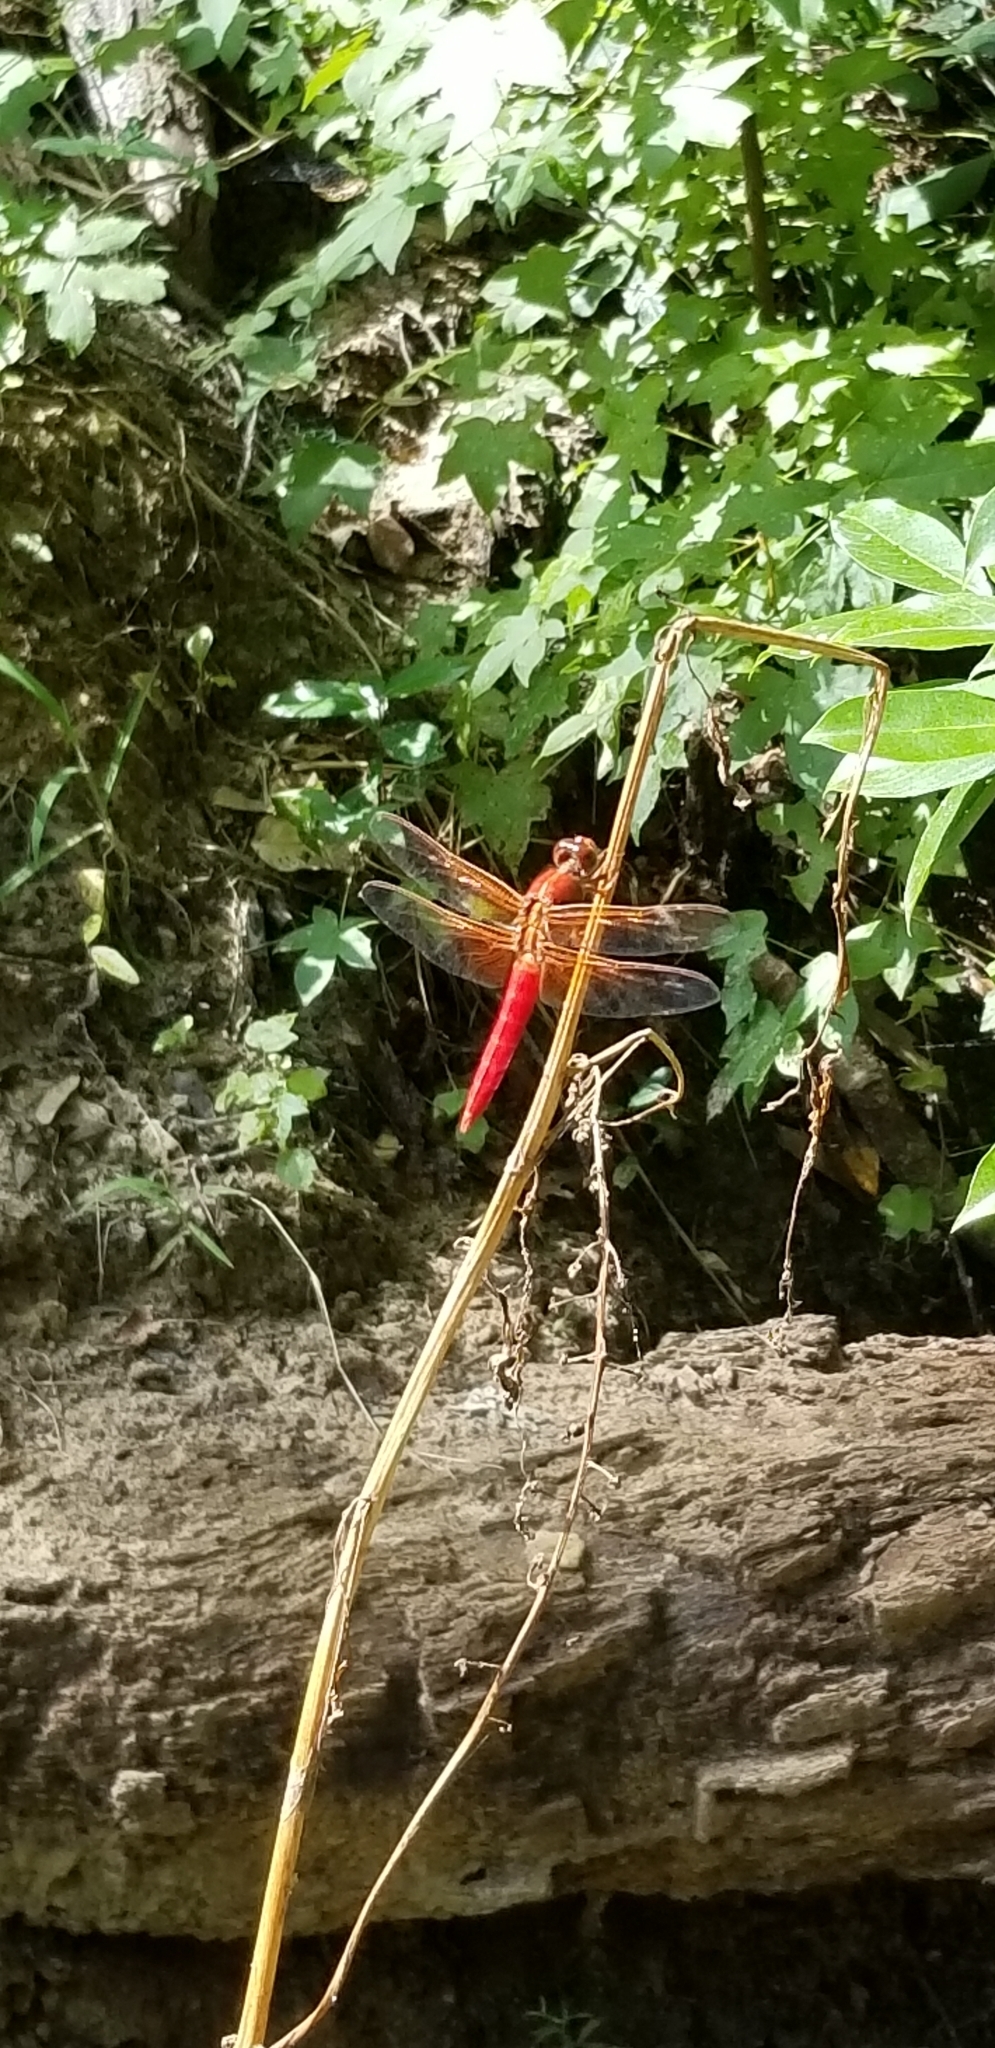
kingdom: Animalia
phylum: Arthropoda
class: Insecta
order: Odonata
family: Libellulidae
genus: Libellula
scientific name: Libellula croceipennis
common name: Neon skimmer
